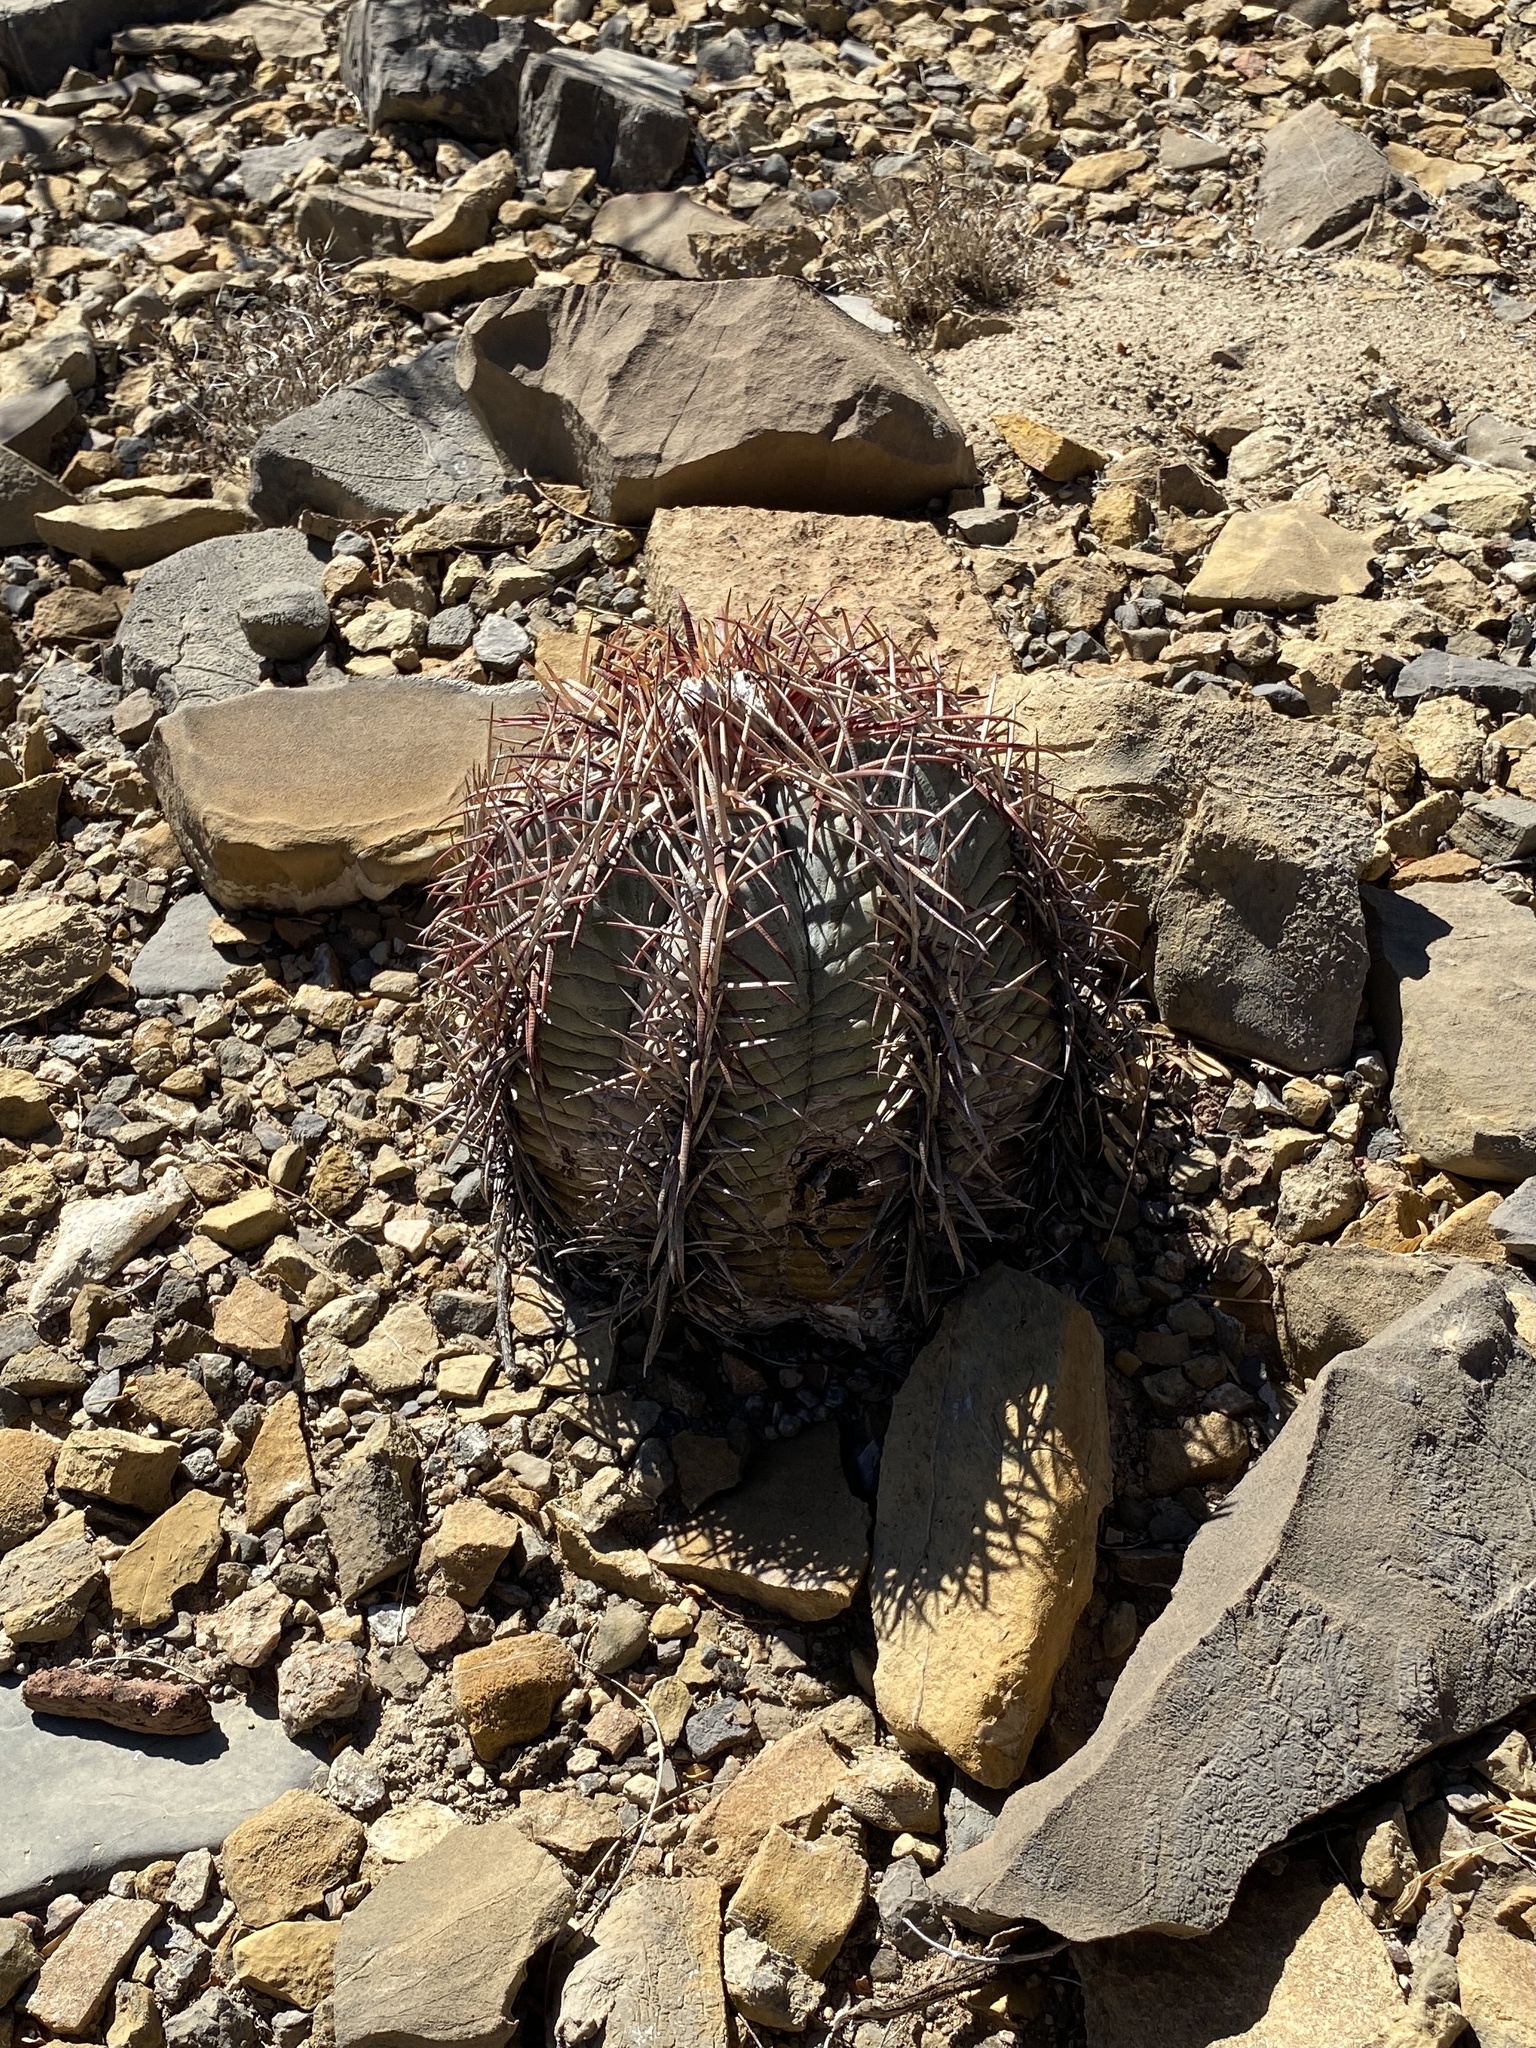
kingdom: Plantae
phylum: Tracheophyta
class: Magnoliopsida
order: Caryophyllales
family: Cactaceae
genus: Echinocactus
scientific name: Echinocactus horizonthalonius
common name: Devilshead
